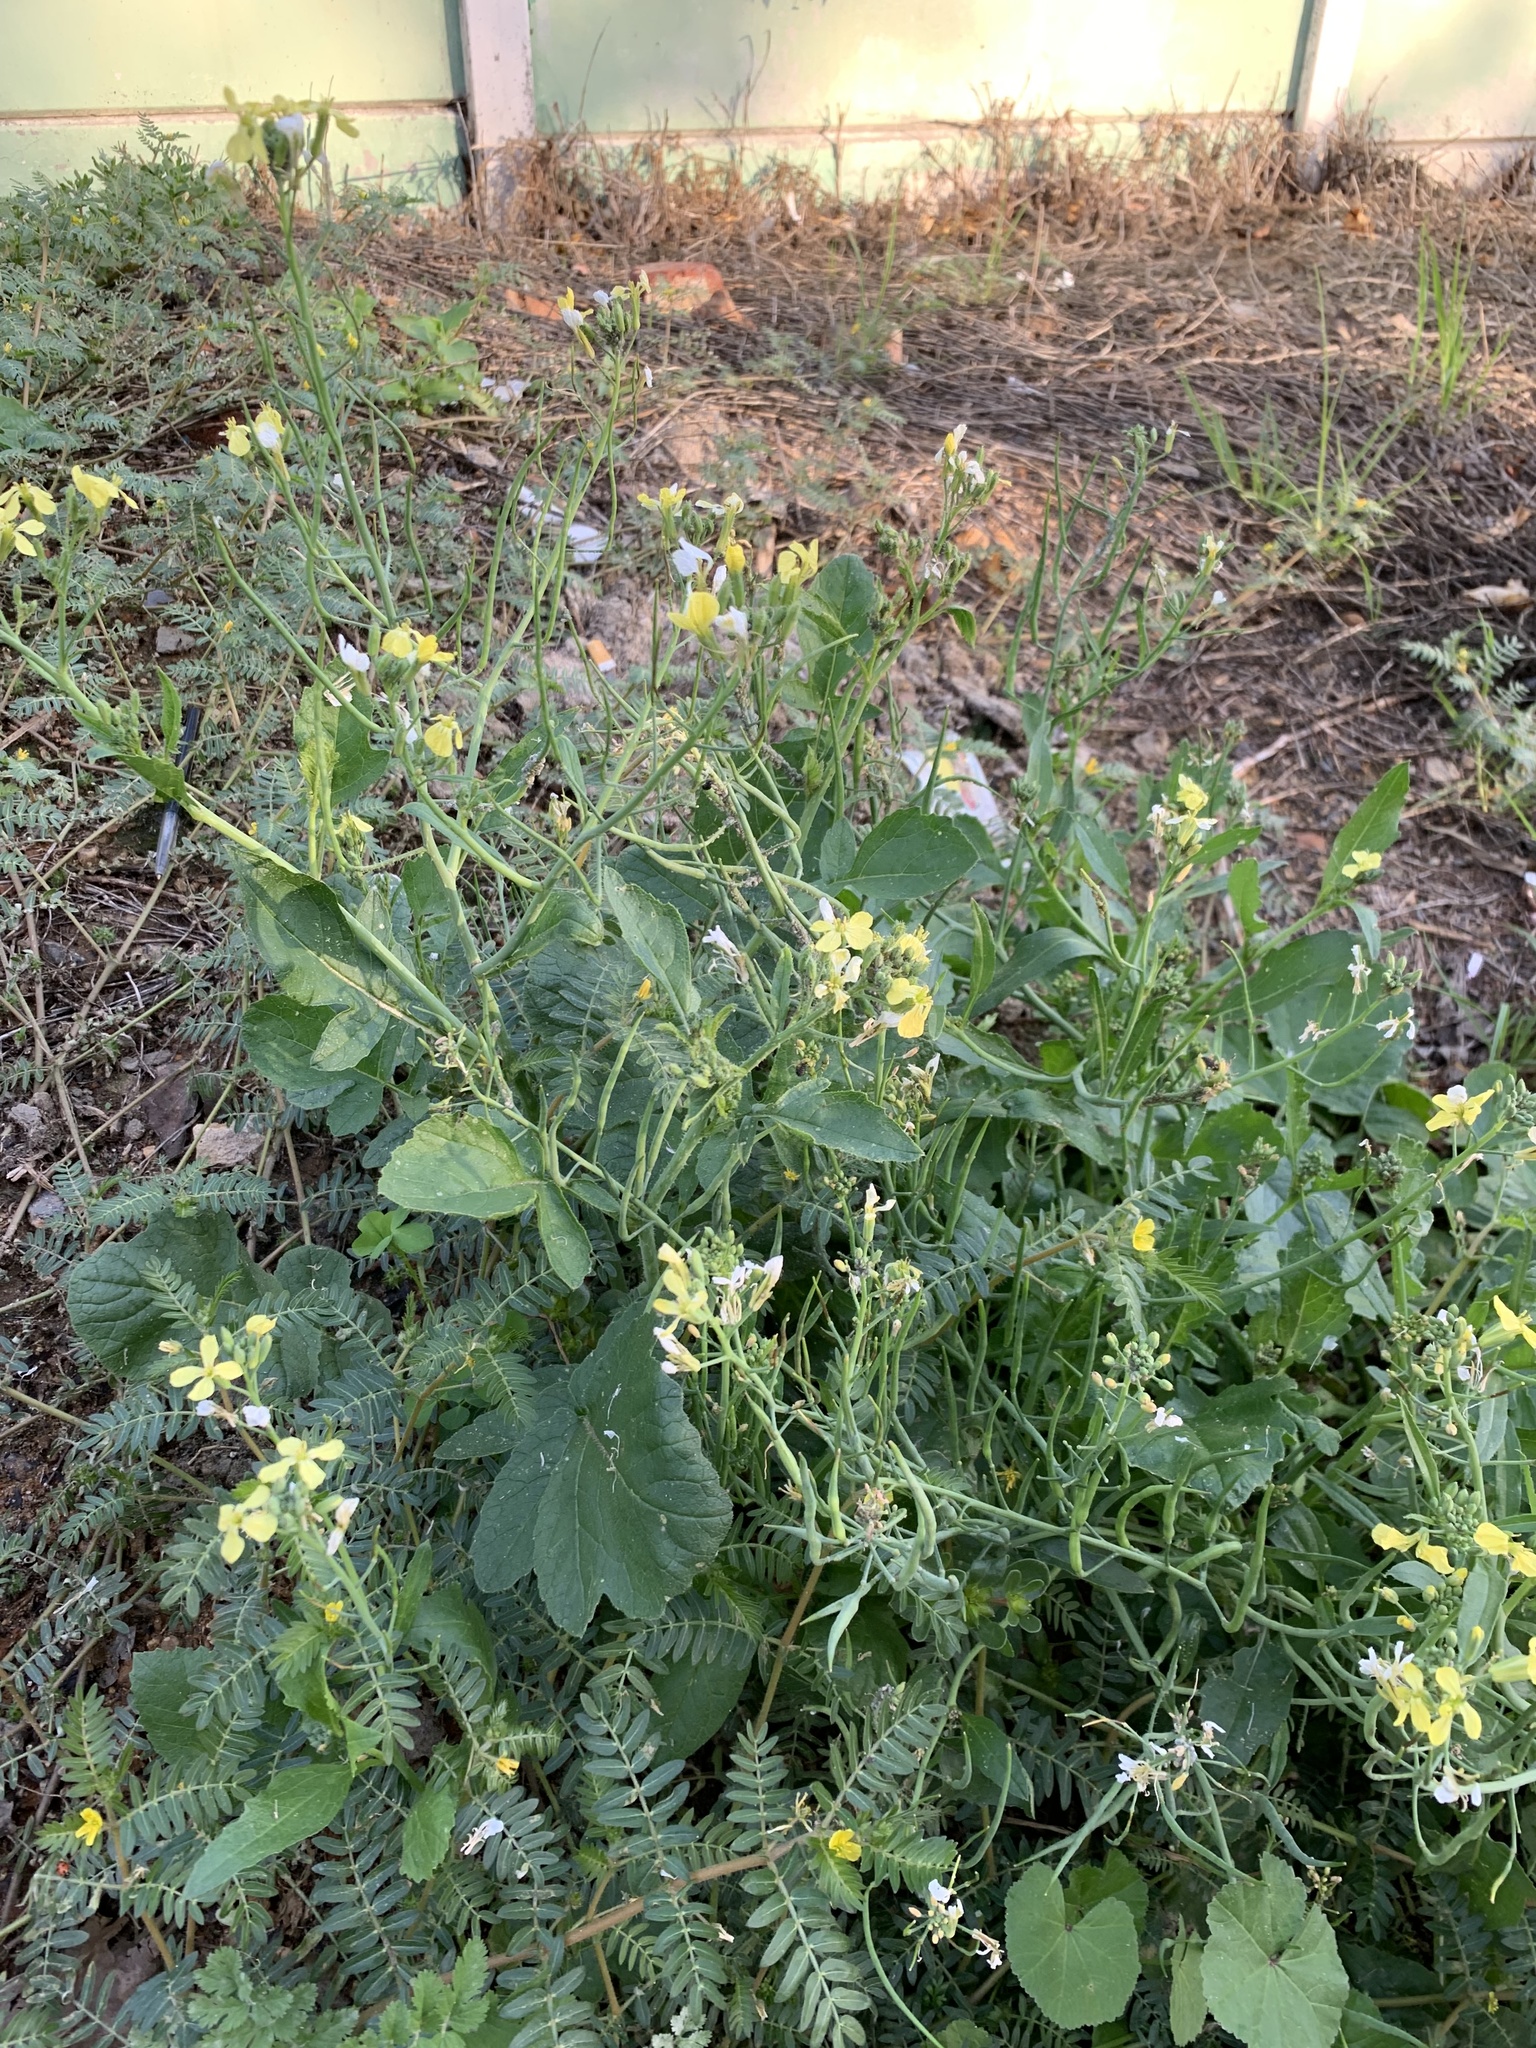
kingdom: Plantae
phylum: Tracheophyta
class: Magnoliopsida
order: Brassicales
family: Brassicaceae
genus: Raphanus
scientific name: Raphanus raphanistrum
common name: Wild radish
